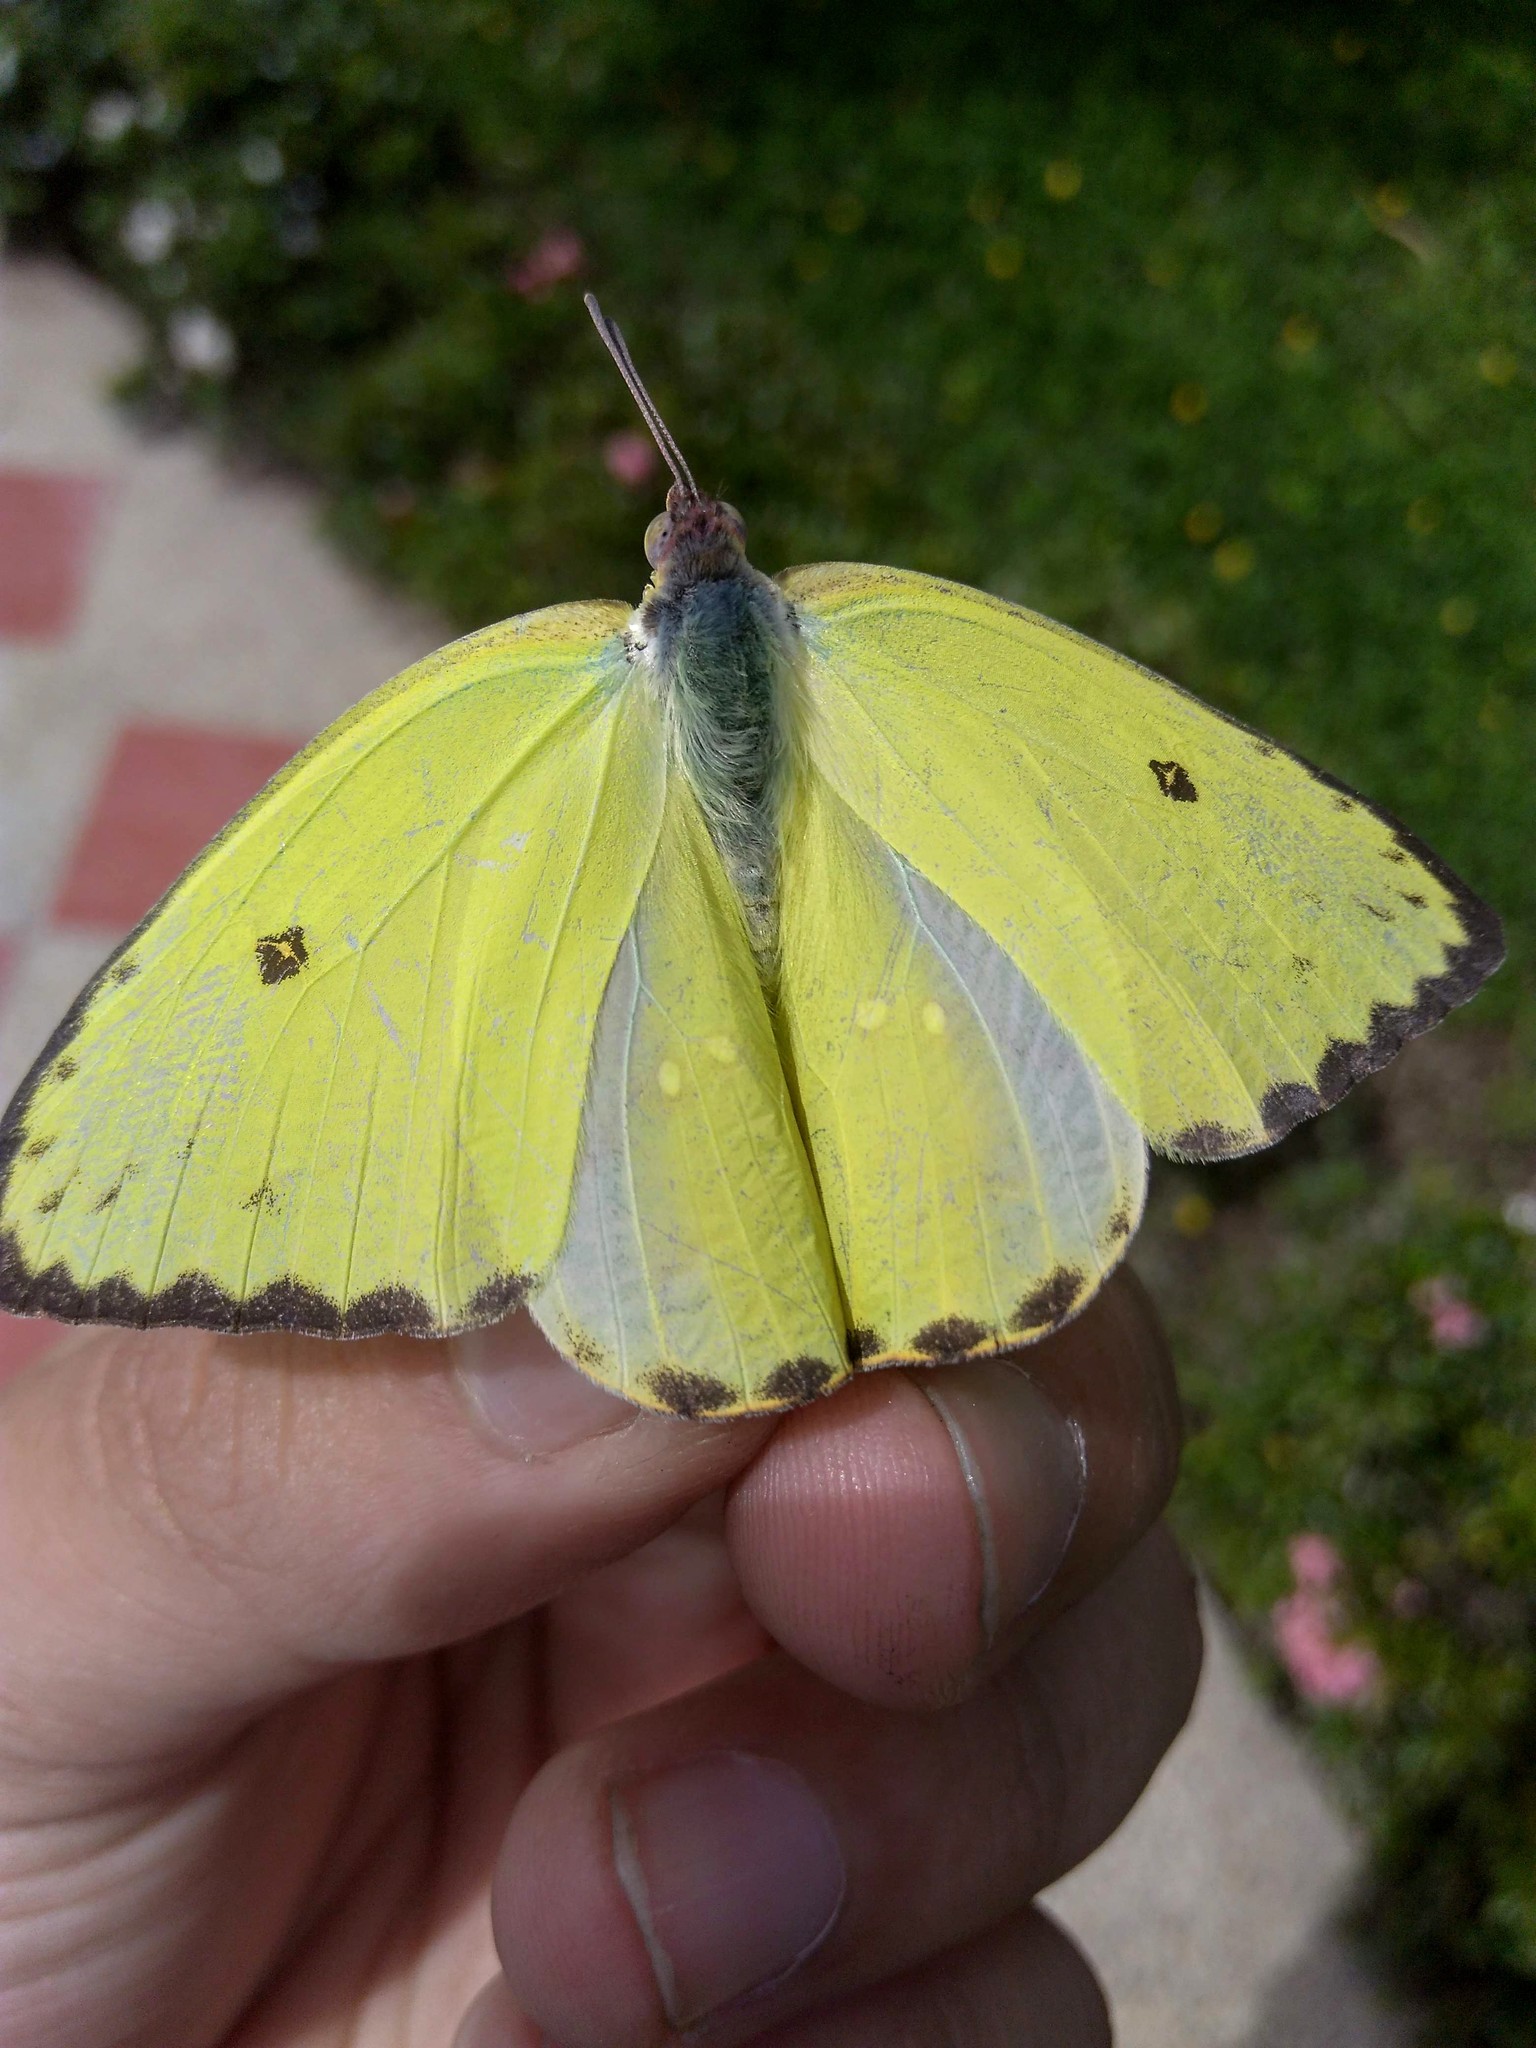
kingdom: Animalia
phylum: Arthropoda
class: Insecta
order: Lepidoptera
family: Pieridae
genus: Phoebis
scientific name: Phoebis sennae
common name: Cloudless sulphur
